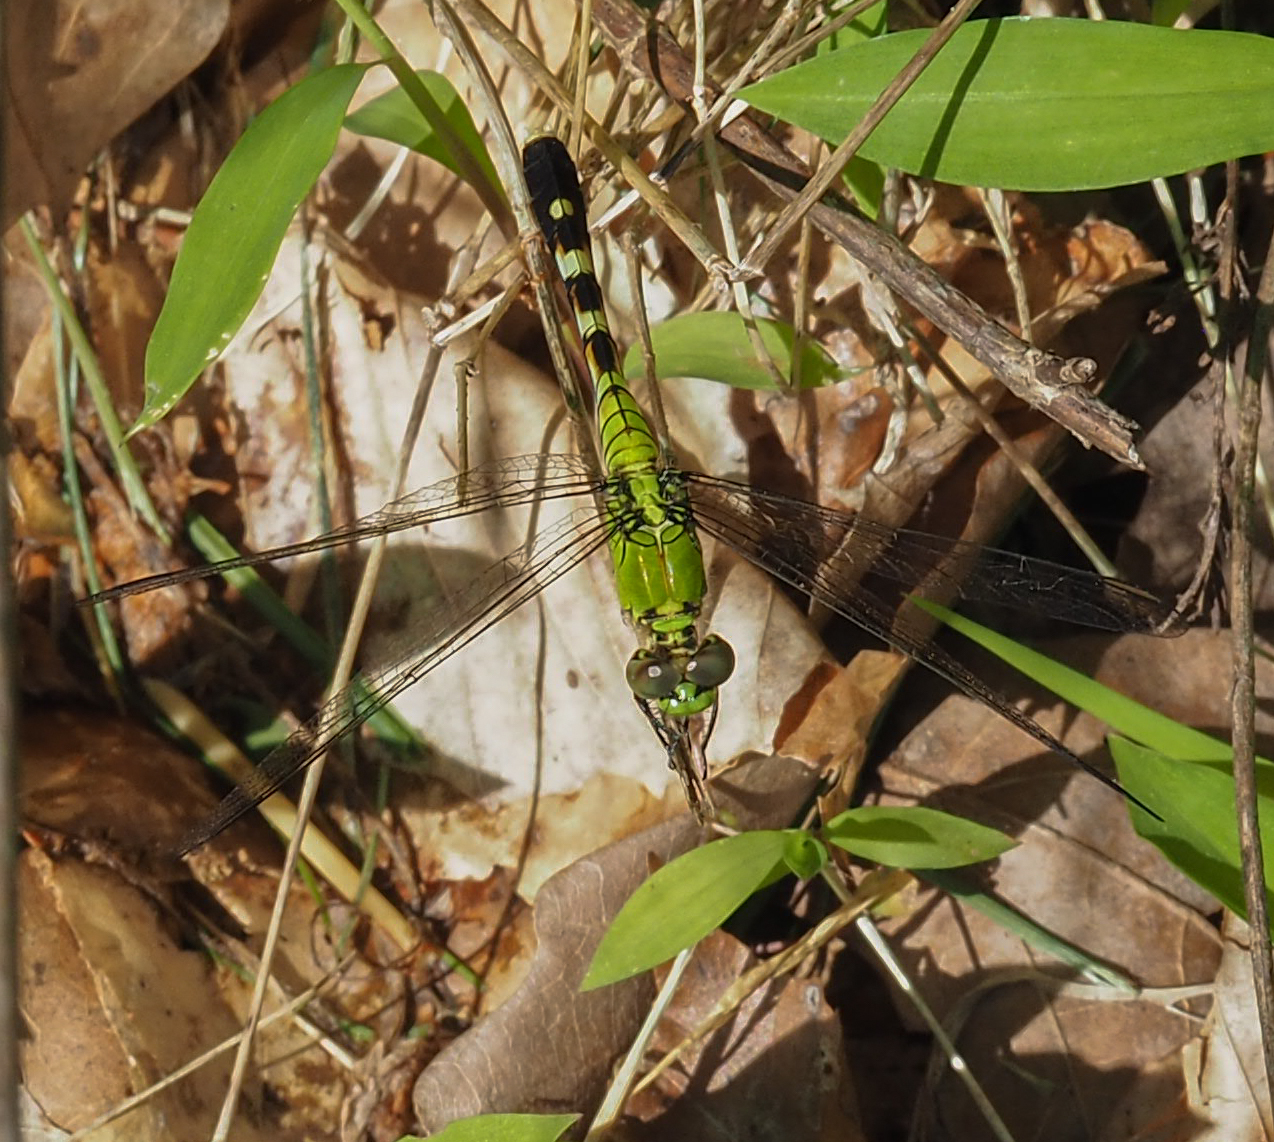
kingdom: Animalia
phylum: Arthropoda
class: Insecta
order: Odonata
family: Libellulidae
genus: Erythemis
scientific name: Erythemis simplicicollis
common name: Eastern pondhawk
